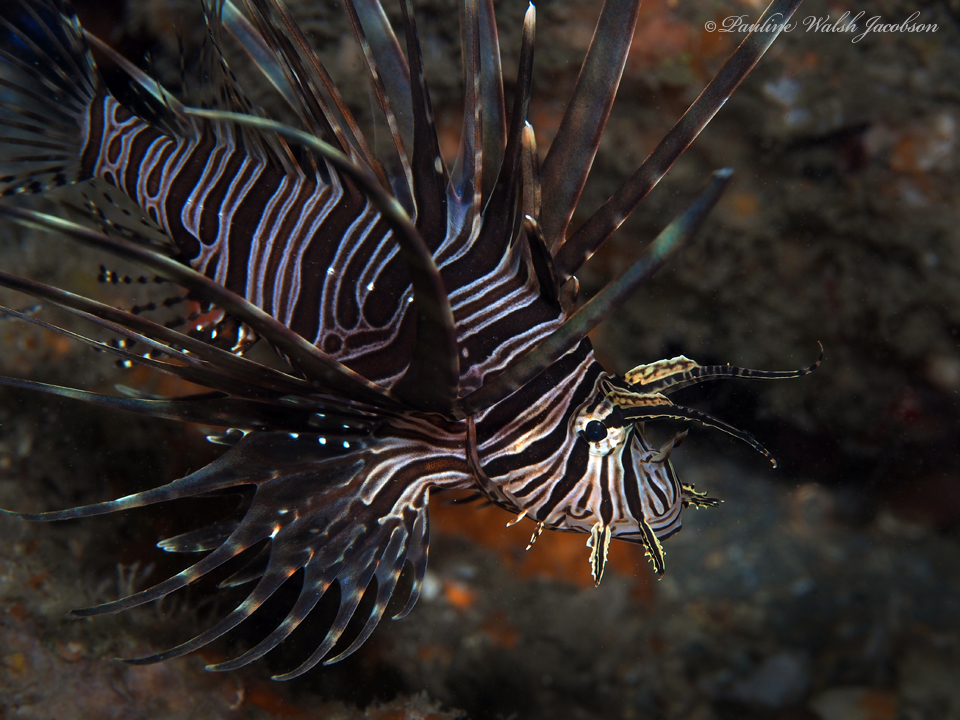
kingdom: Animalia
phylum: Chordata
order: Scorpaeniformes
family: Scorpaenidae
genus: Pterois
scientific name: Pterois volitans
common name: Lionfish
